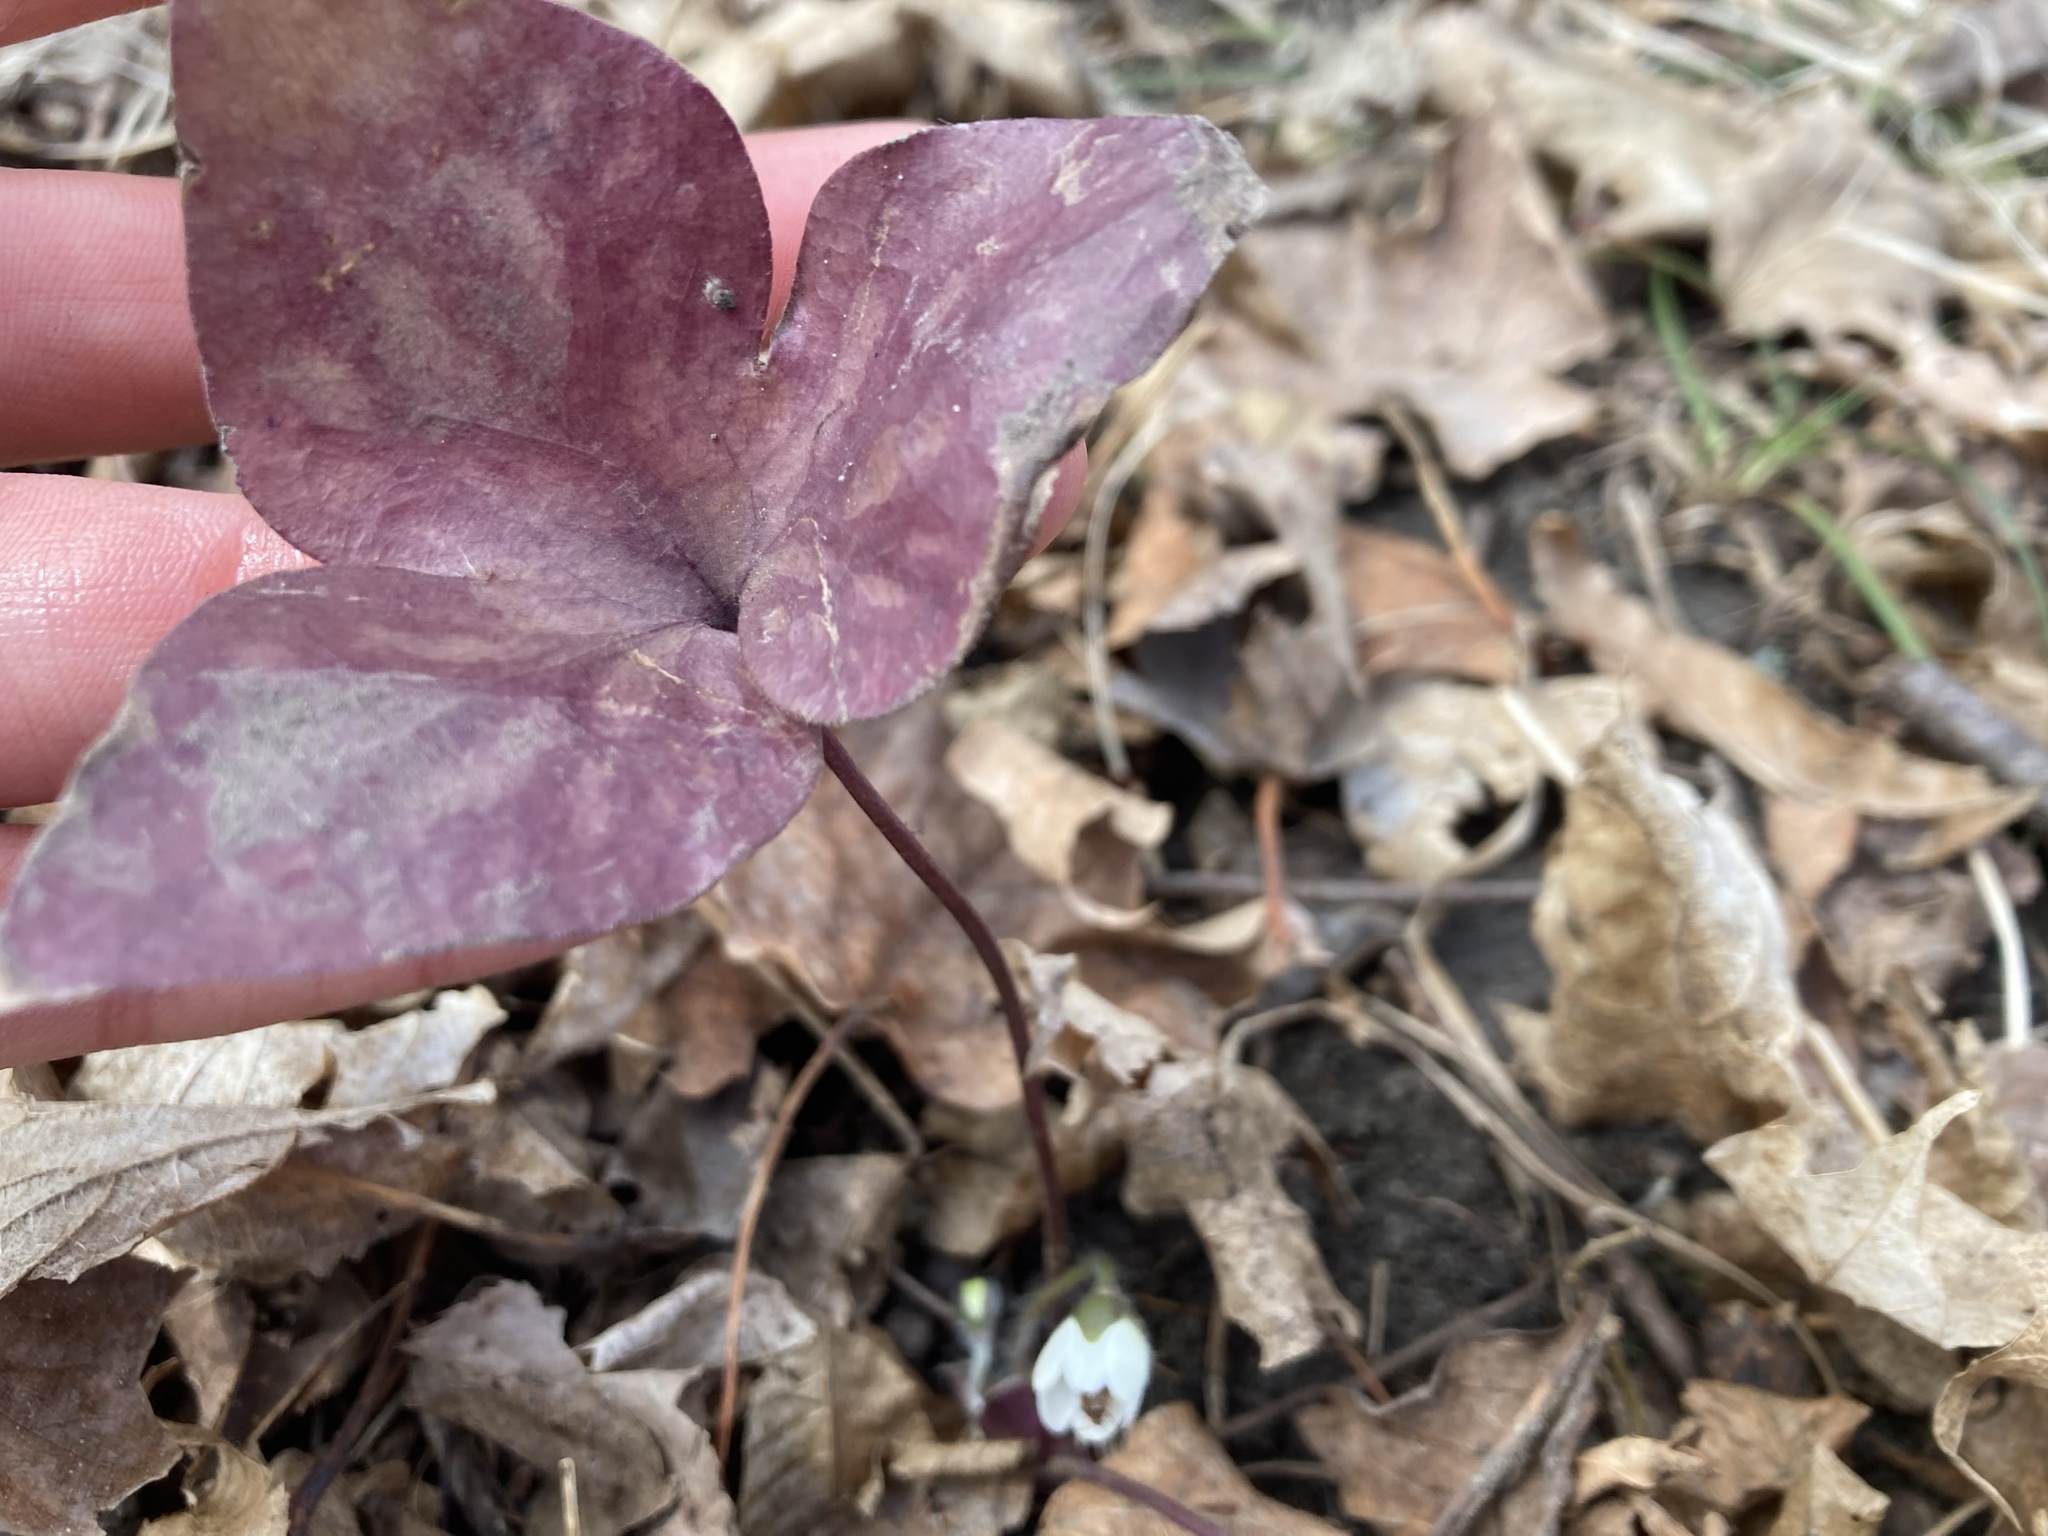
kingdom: Plantae
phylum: Tracheophyta
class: Magnoliopsida
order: Ranunculales
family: Ranunculaceae
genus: Hepatica
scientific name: Hepatica acutiloba
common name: Sharp-lobed hepatica
